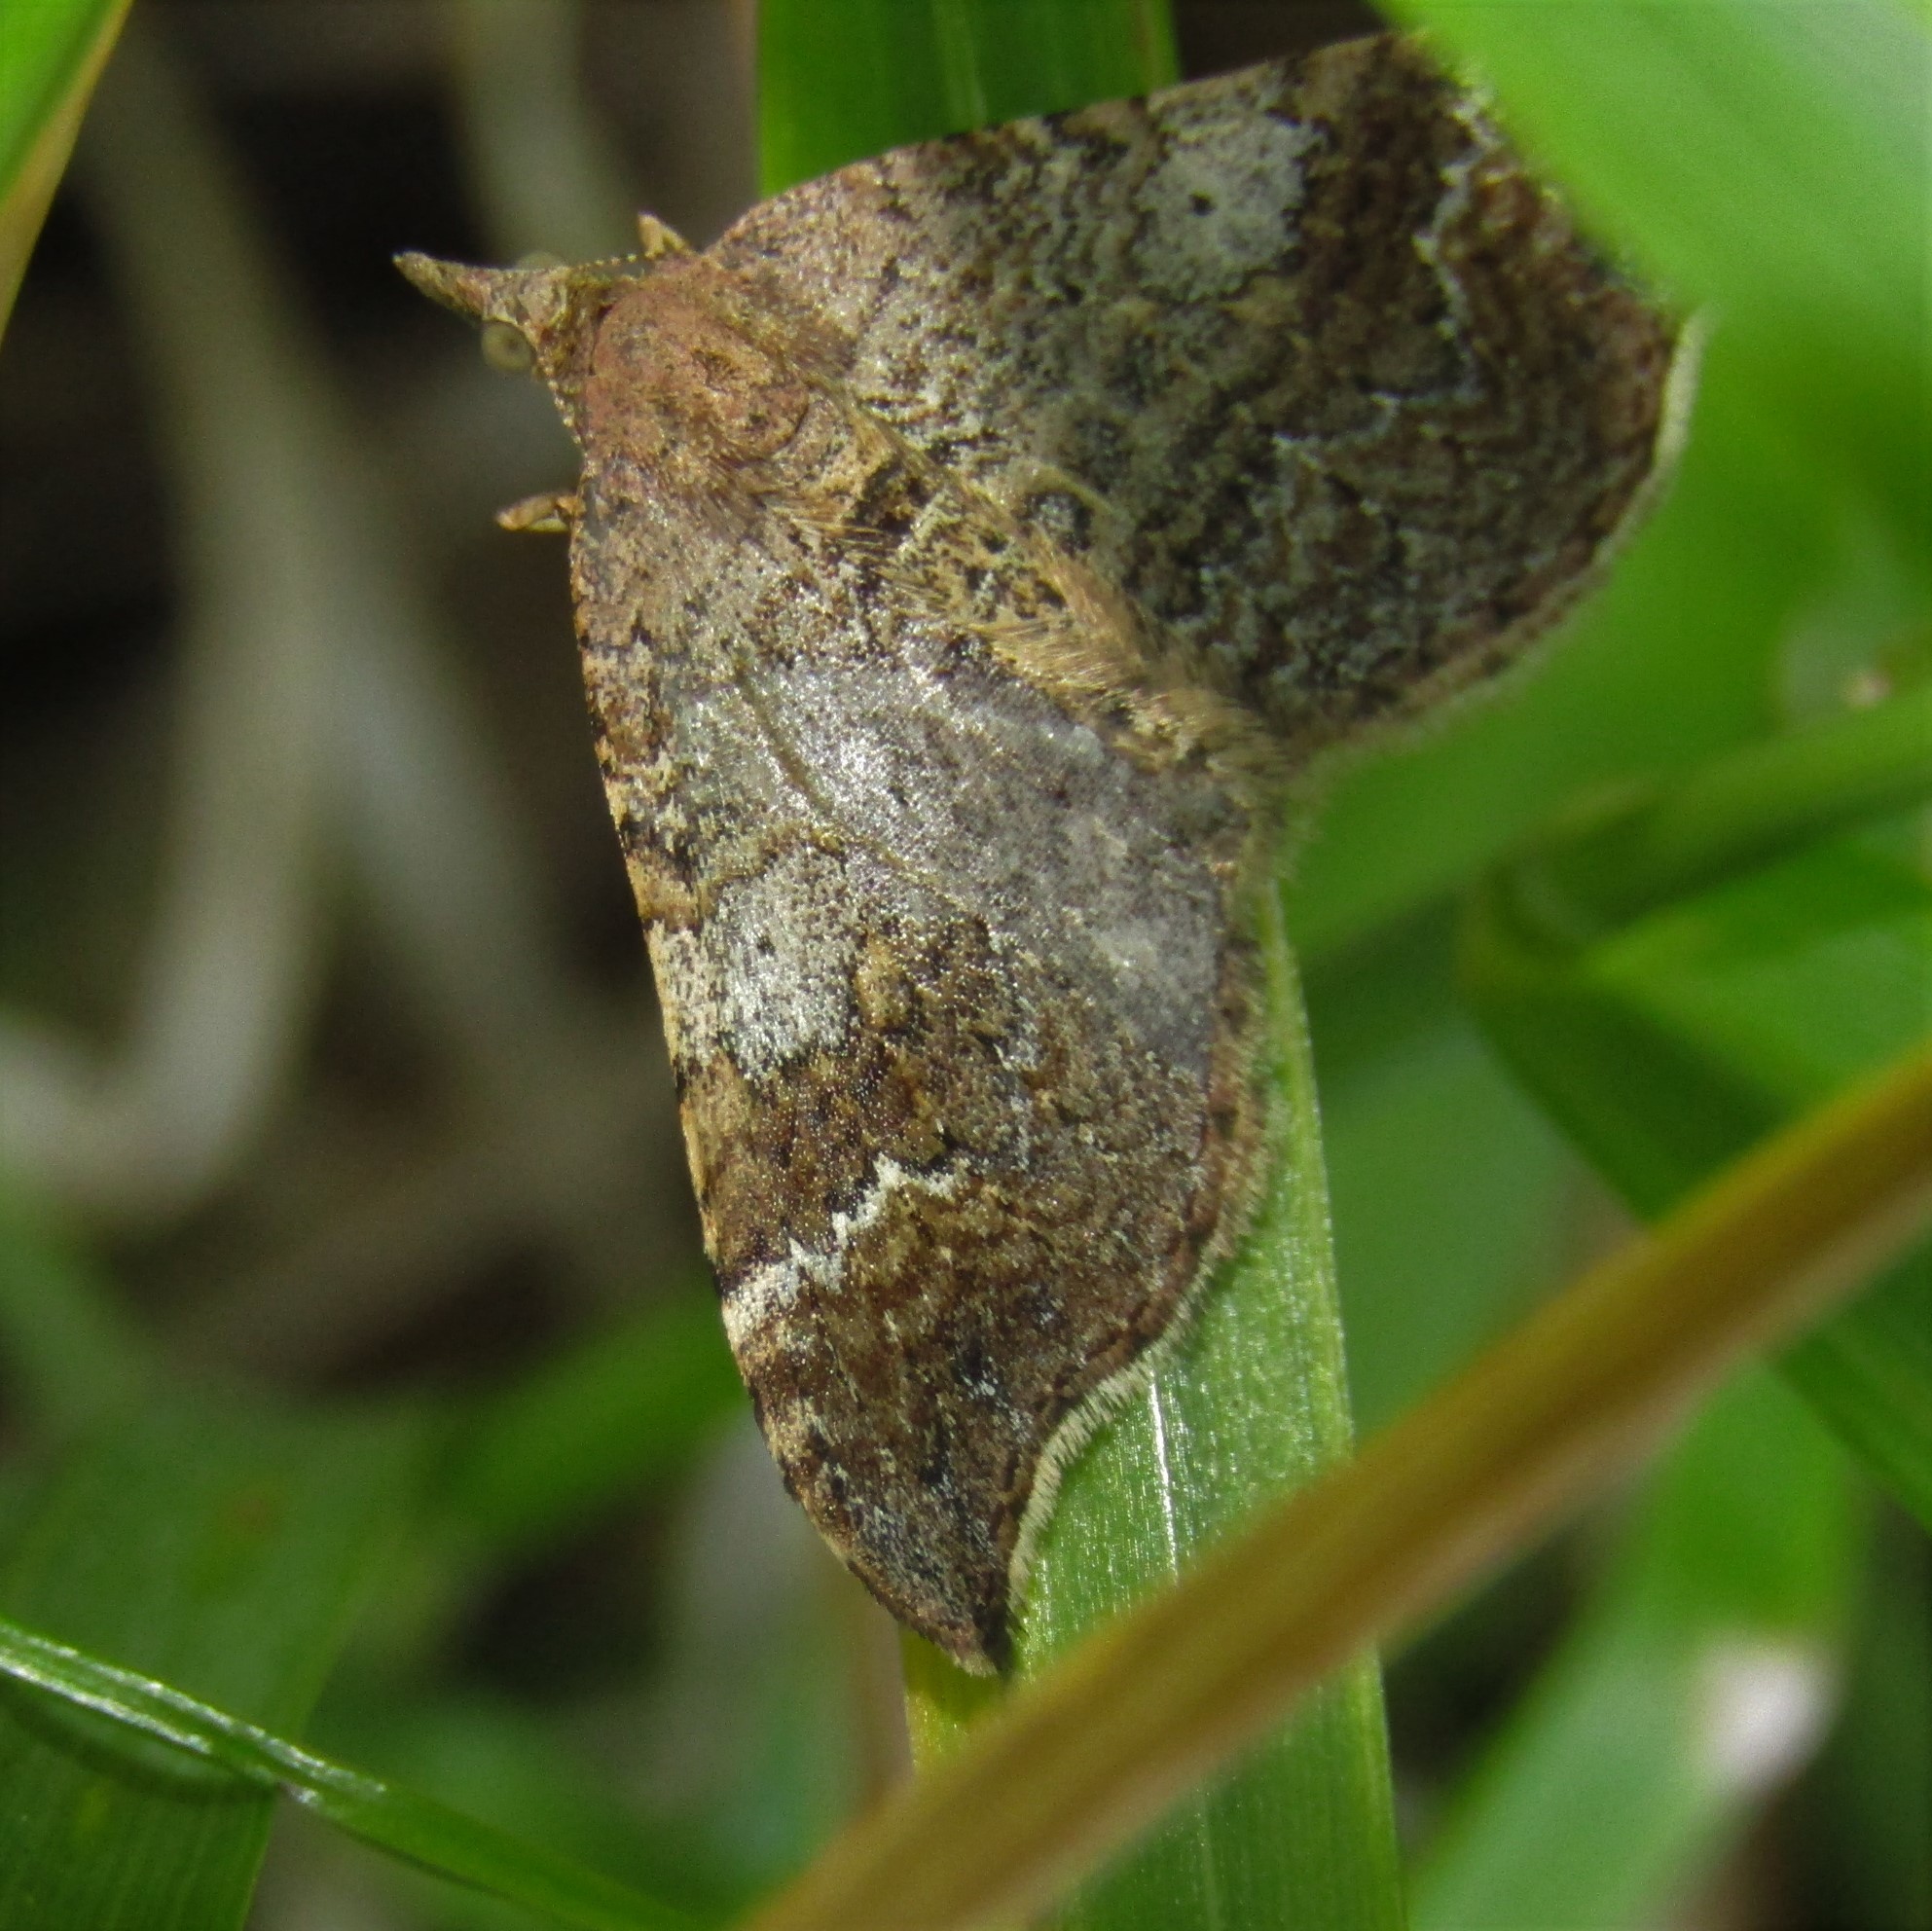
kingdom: Animalia
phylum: Arthropoda
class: Insecta
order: Lepidoptera
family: Geometridae
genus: Homodotis
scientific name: Homodotis megaspilata
